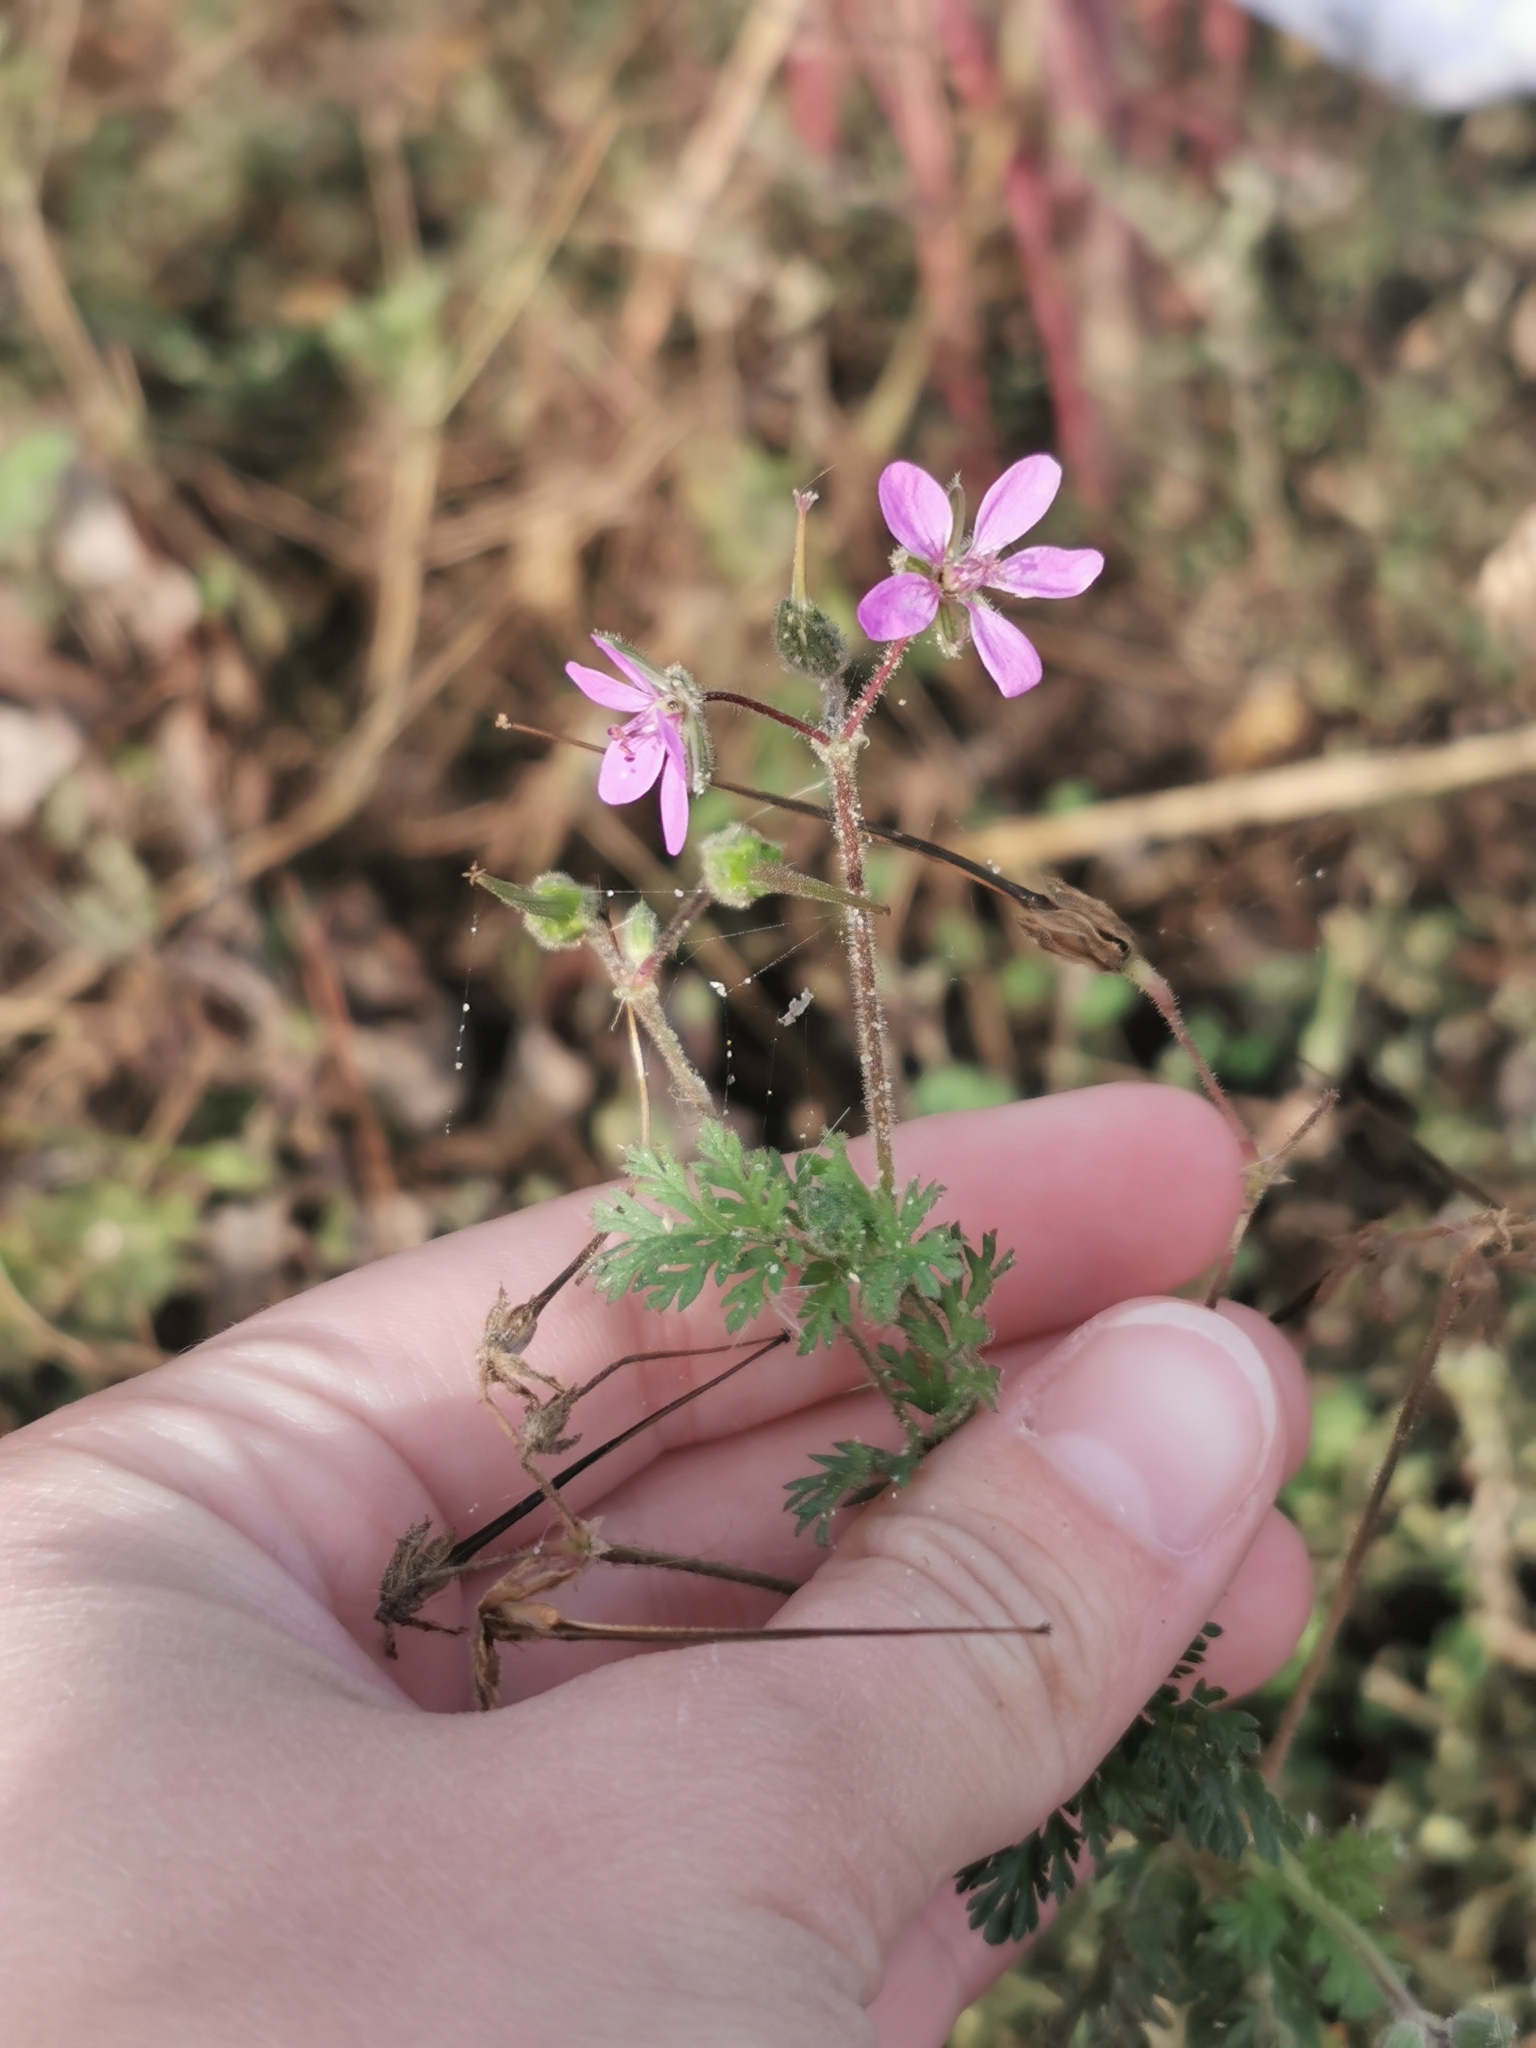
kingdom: Plantae
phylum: Tracheophyta
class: Magnoliopsida
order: Geraniales
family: Geraniaceae
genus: Erodium
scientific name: Erodium cicutarium
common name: Common stork's-bill
